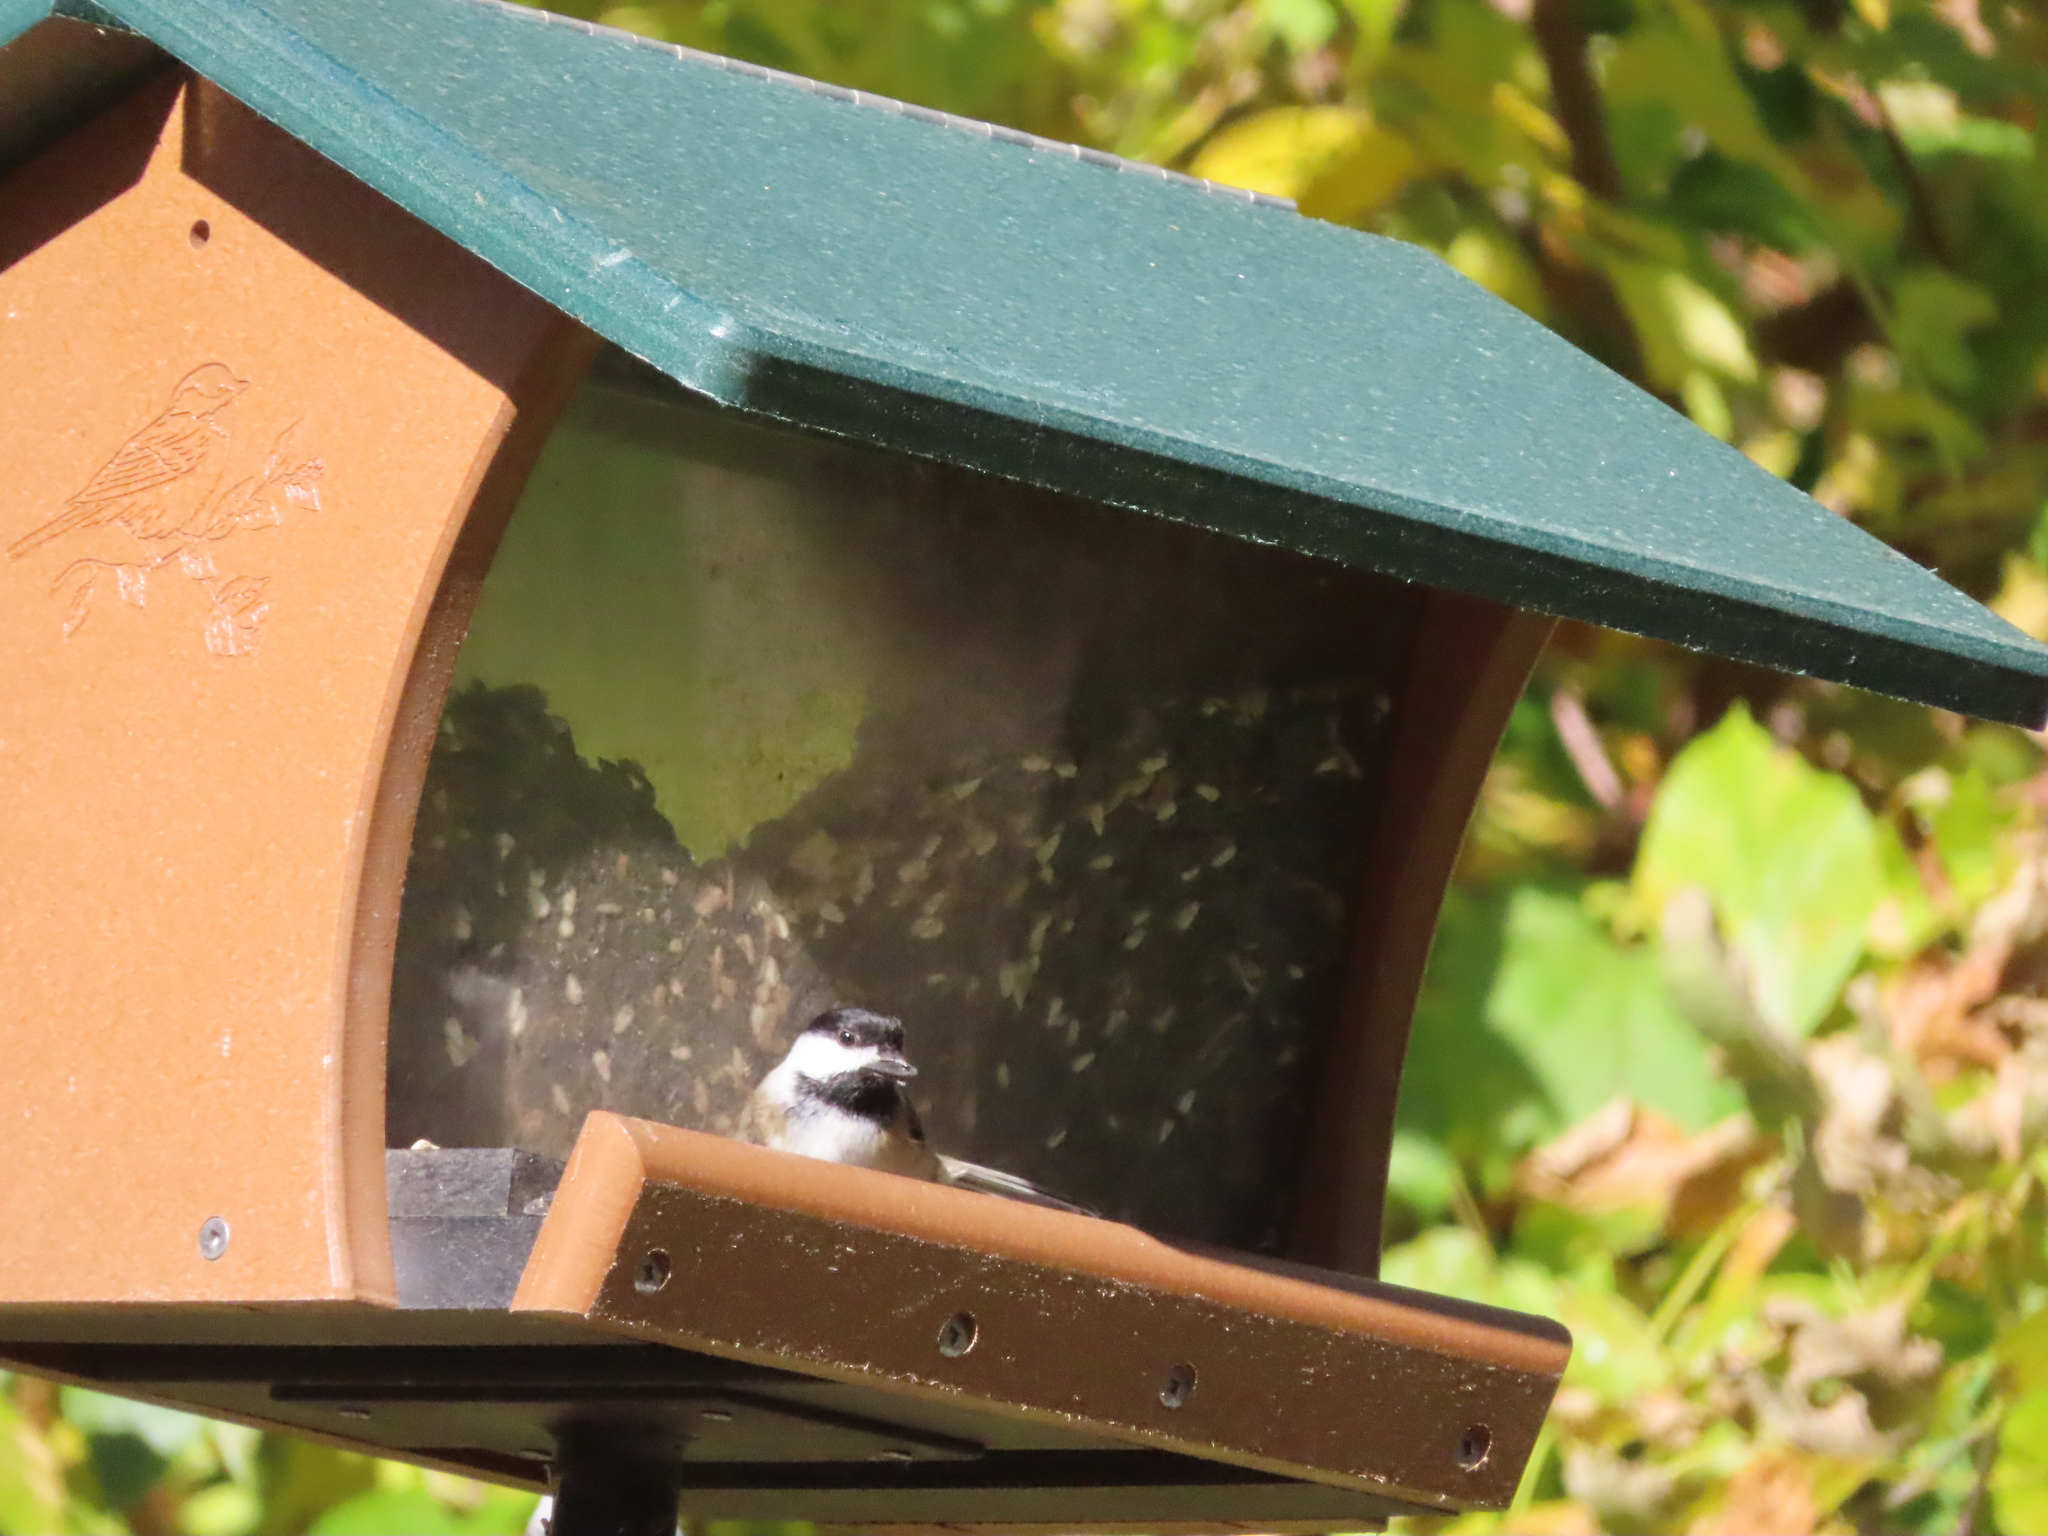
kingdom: Animalia
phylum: Chordata
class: Aves
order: Passeriformes
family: Paridae
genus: Poecile
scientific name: Poecile atricapillus
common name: Black-capped chickadee
